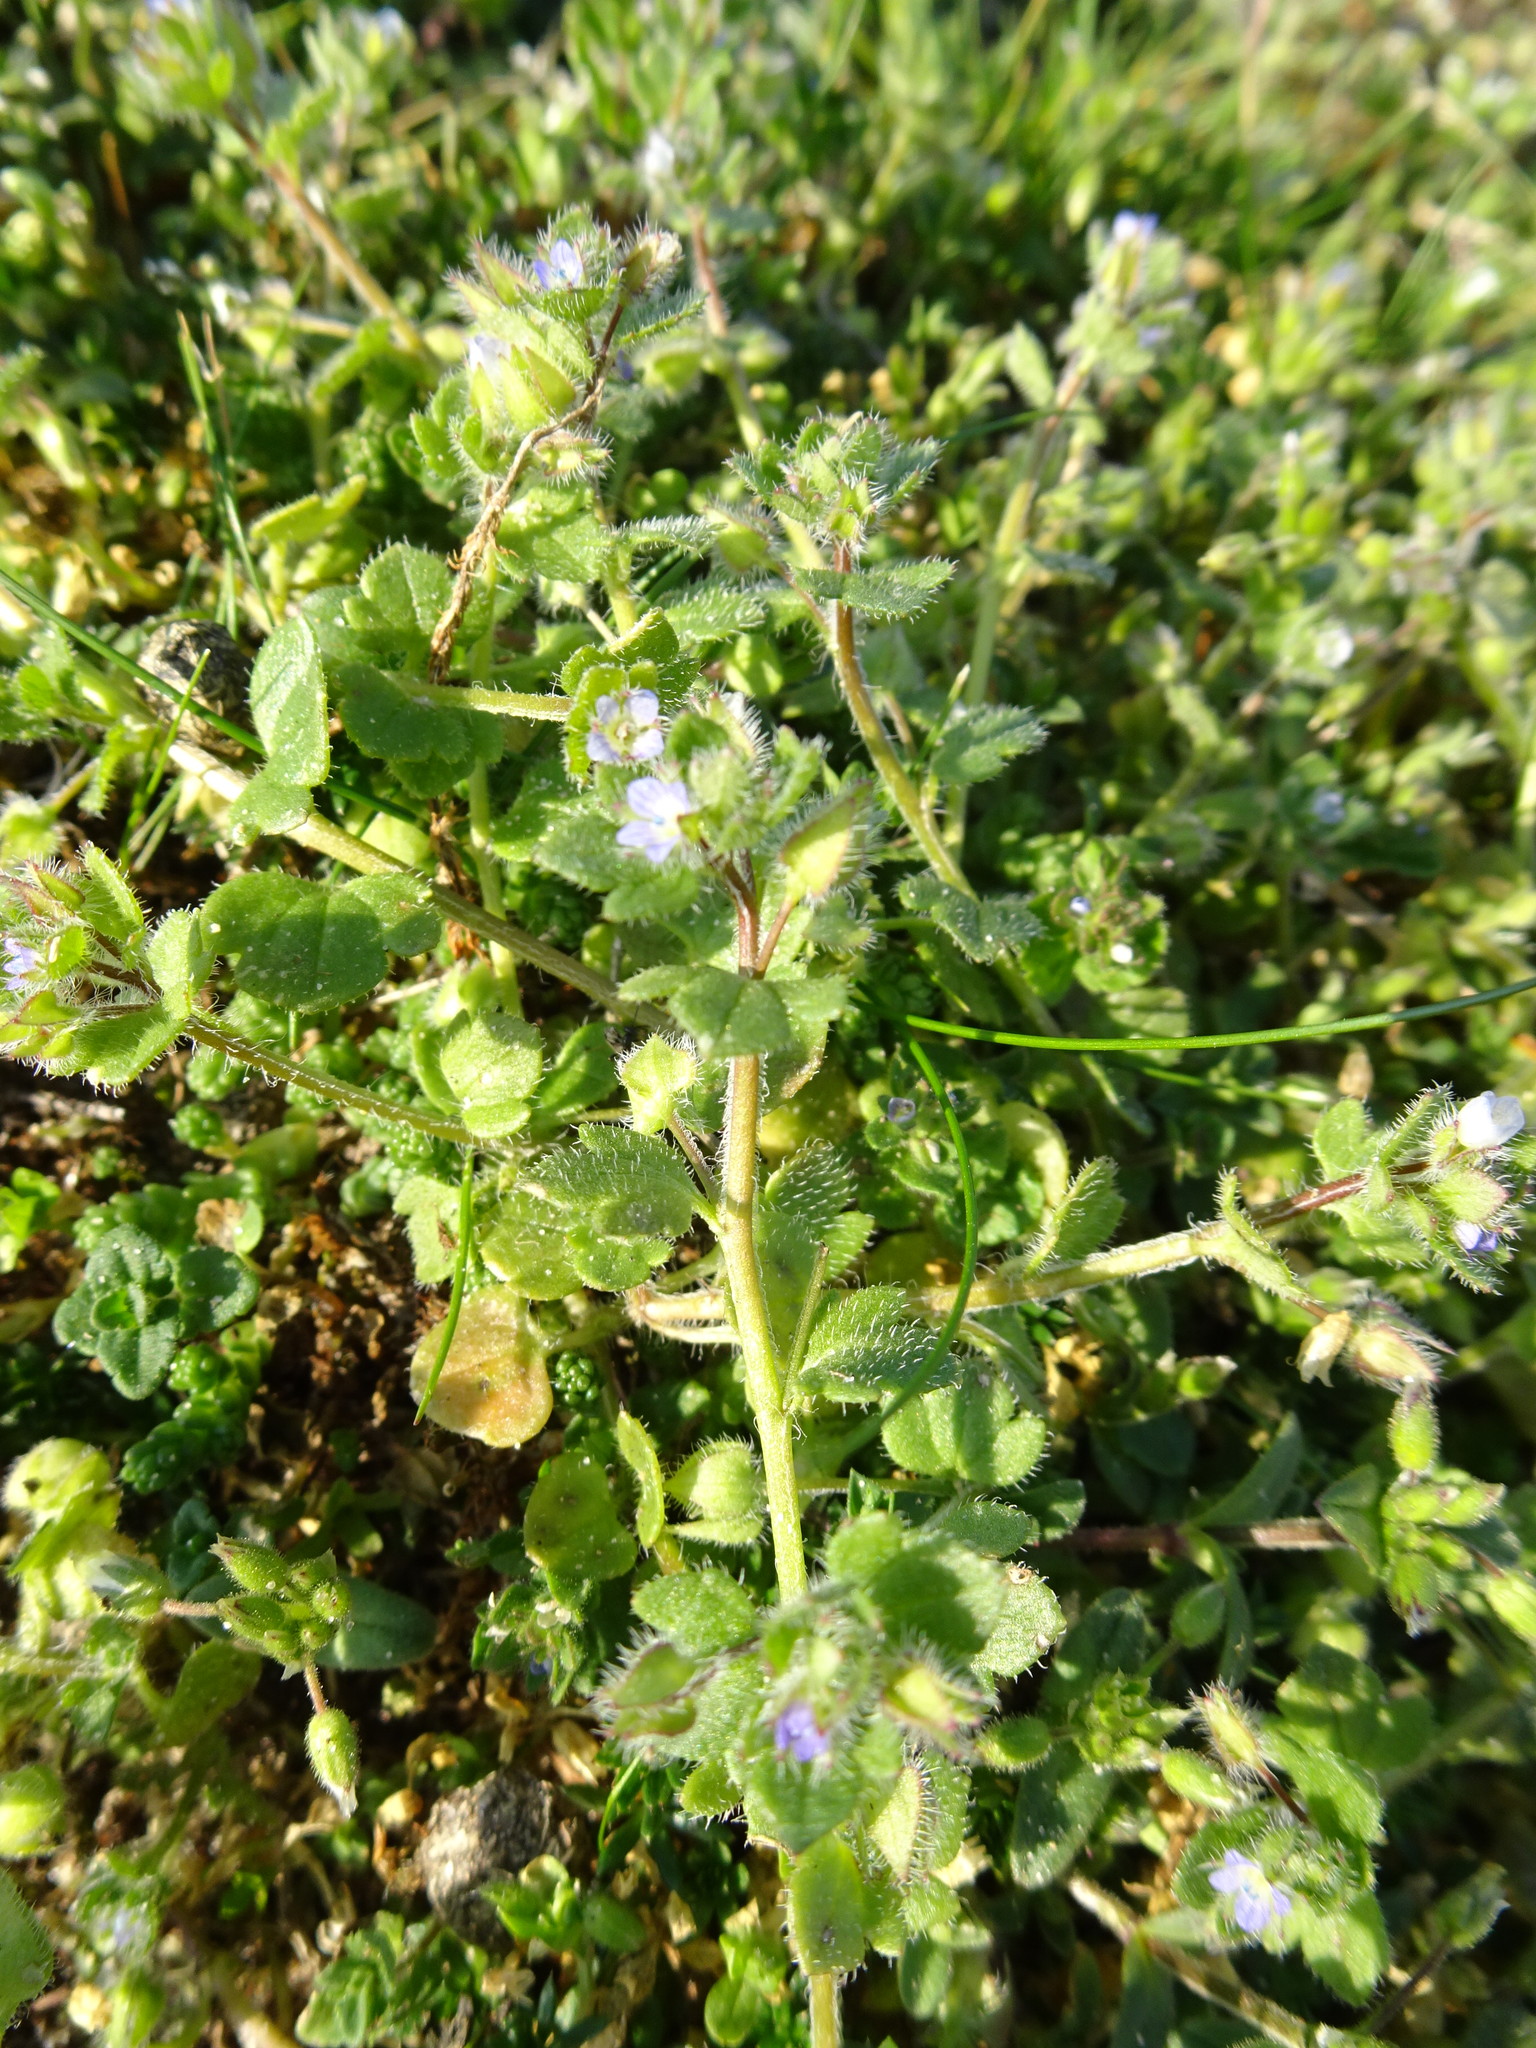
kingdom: Plantae
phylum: Tracheophyta
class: Magnoliopsida
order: Lamiales
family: Plantaginaceae
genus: Veronica
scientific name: Veronica hederifolia
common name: Ivy-leaved speedwell
